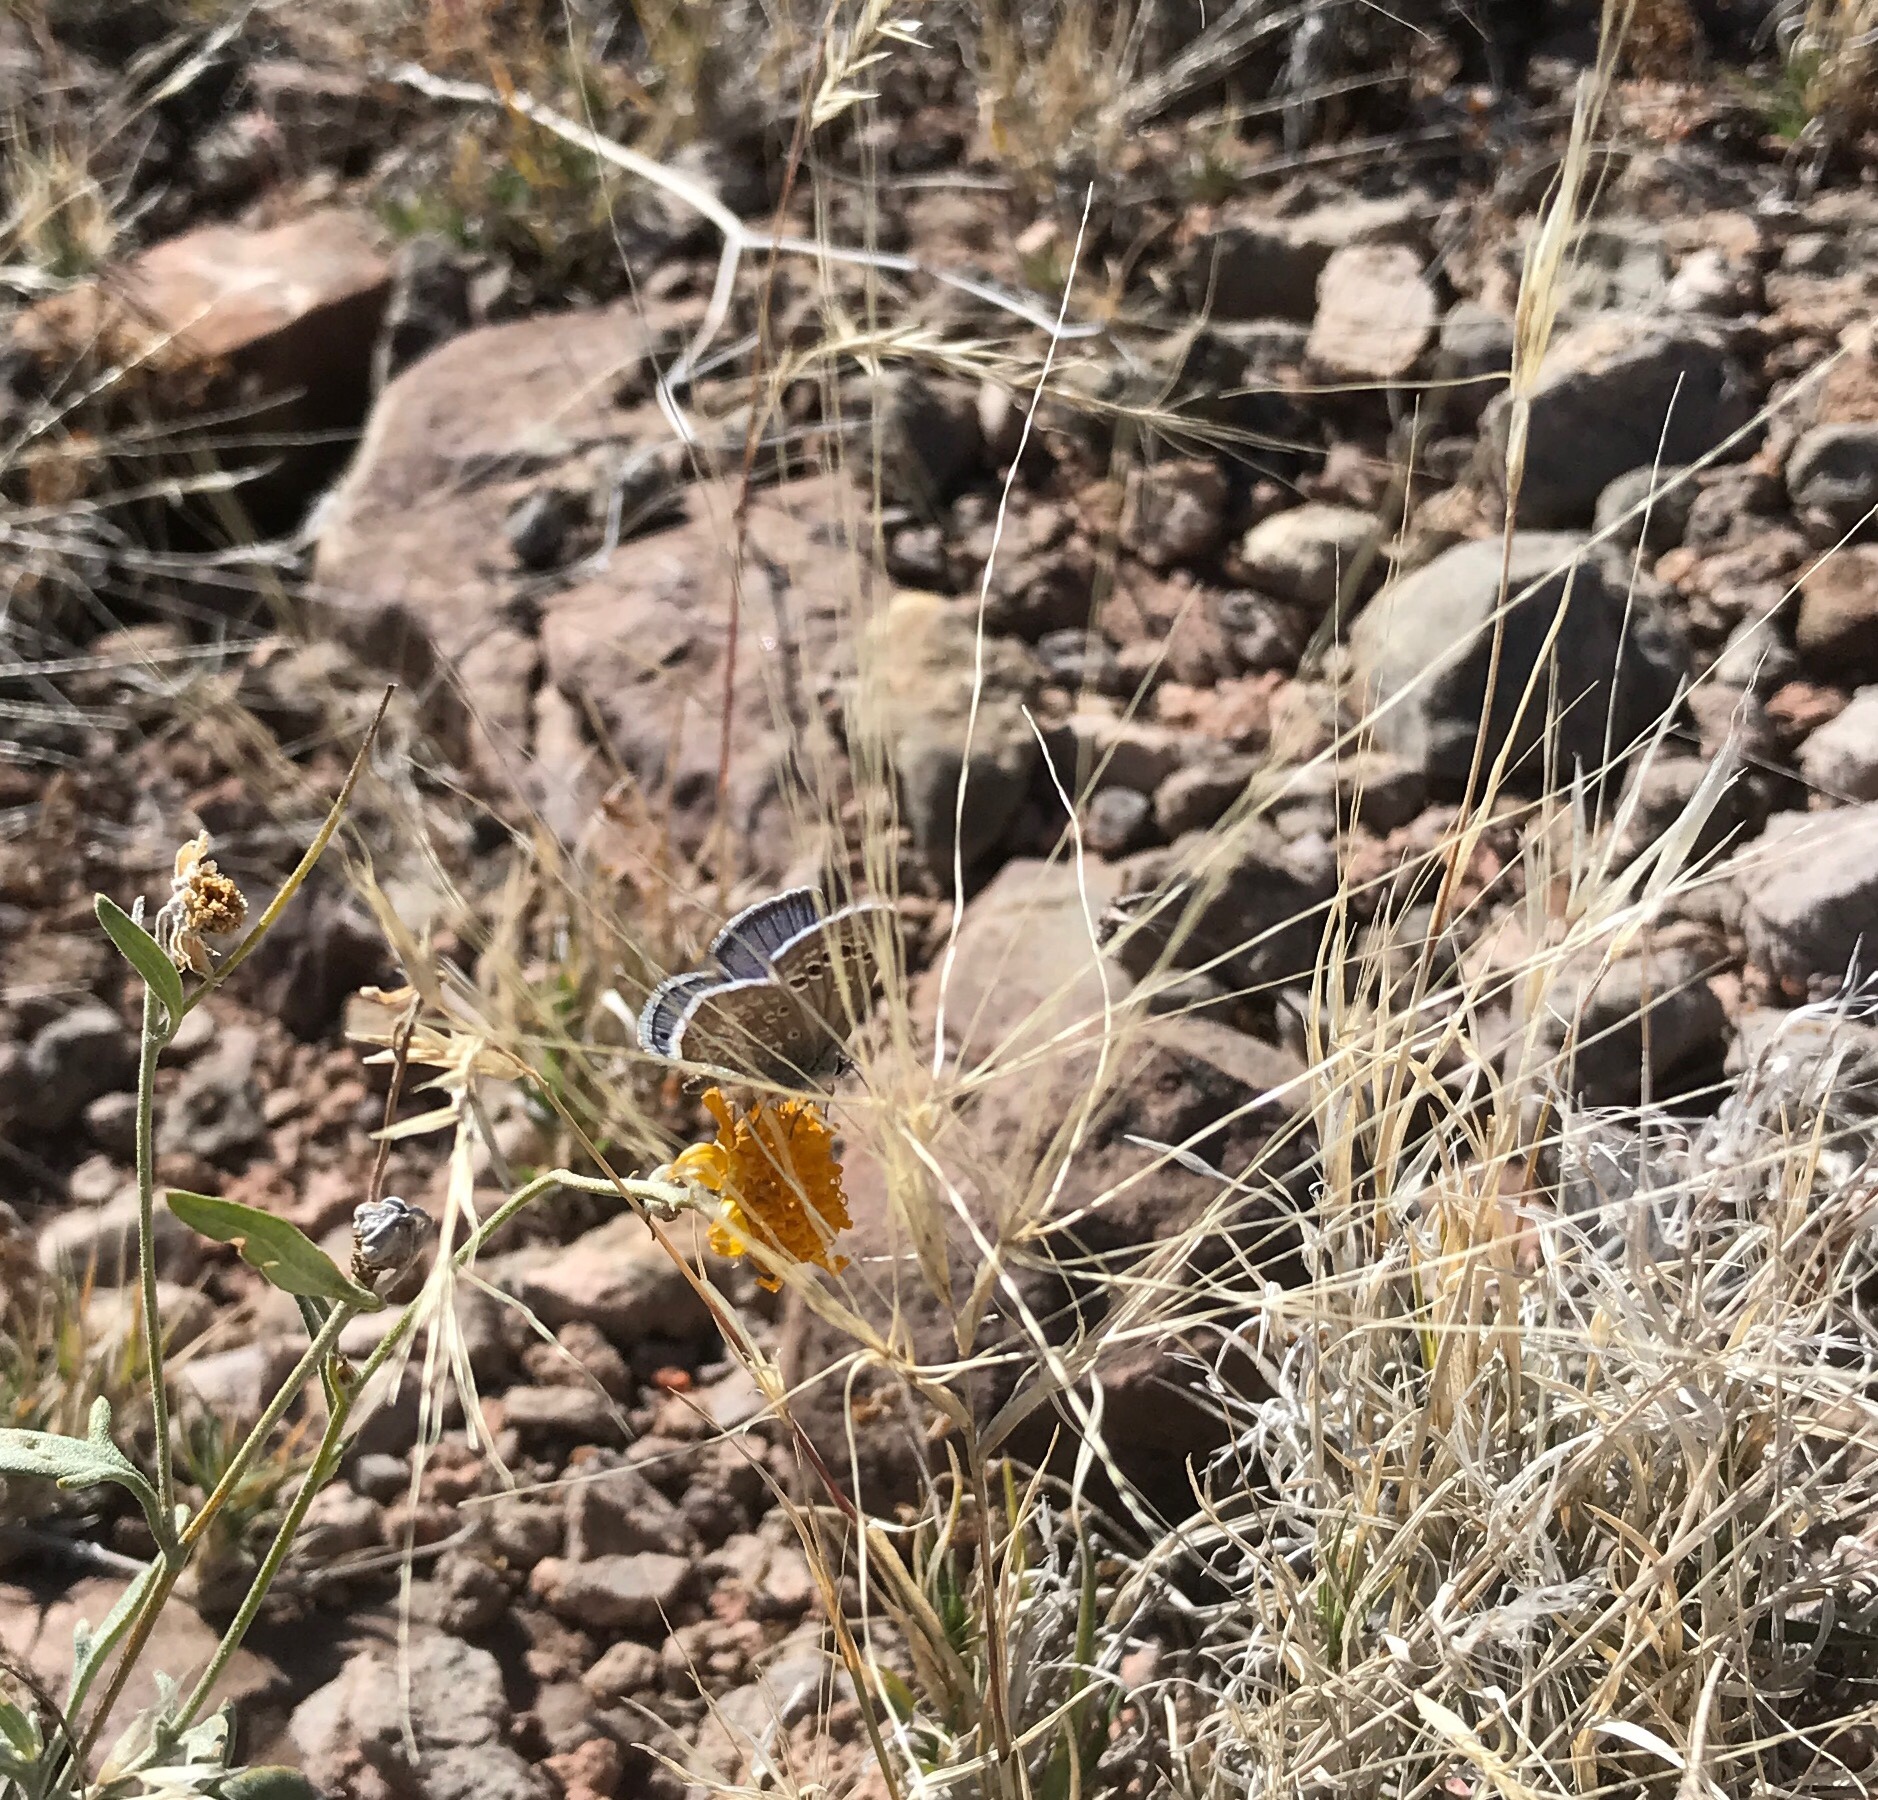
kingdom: Animalia
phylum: Arthropoda
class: Insecta
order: Lepidoptera
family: Lycaenidae
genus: Echinargus
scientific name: Echinargus isola
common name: Reakirt's blue
